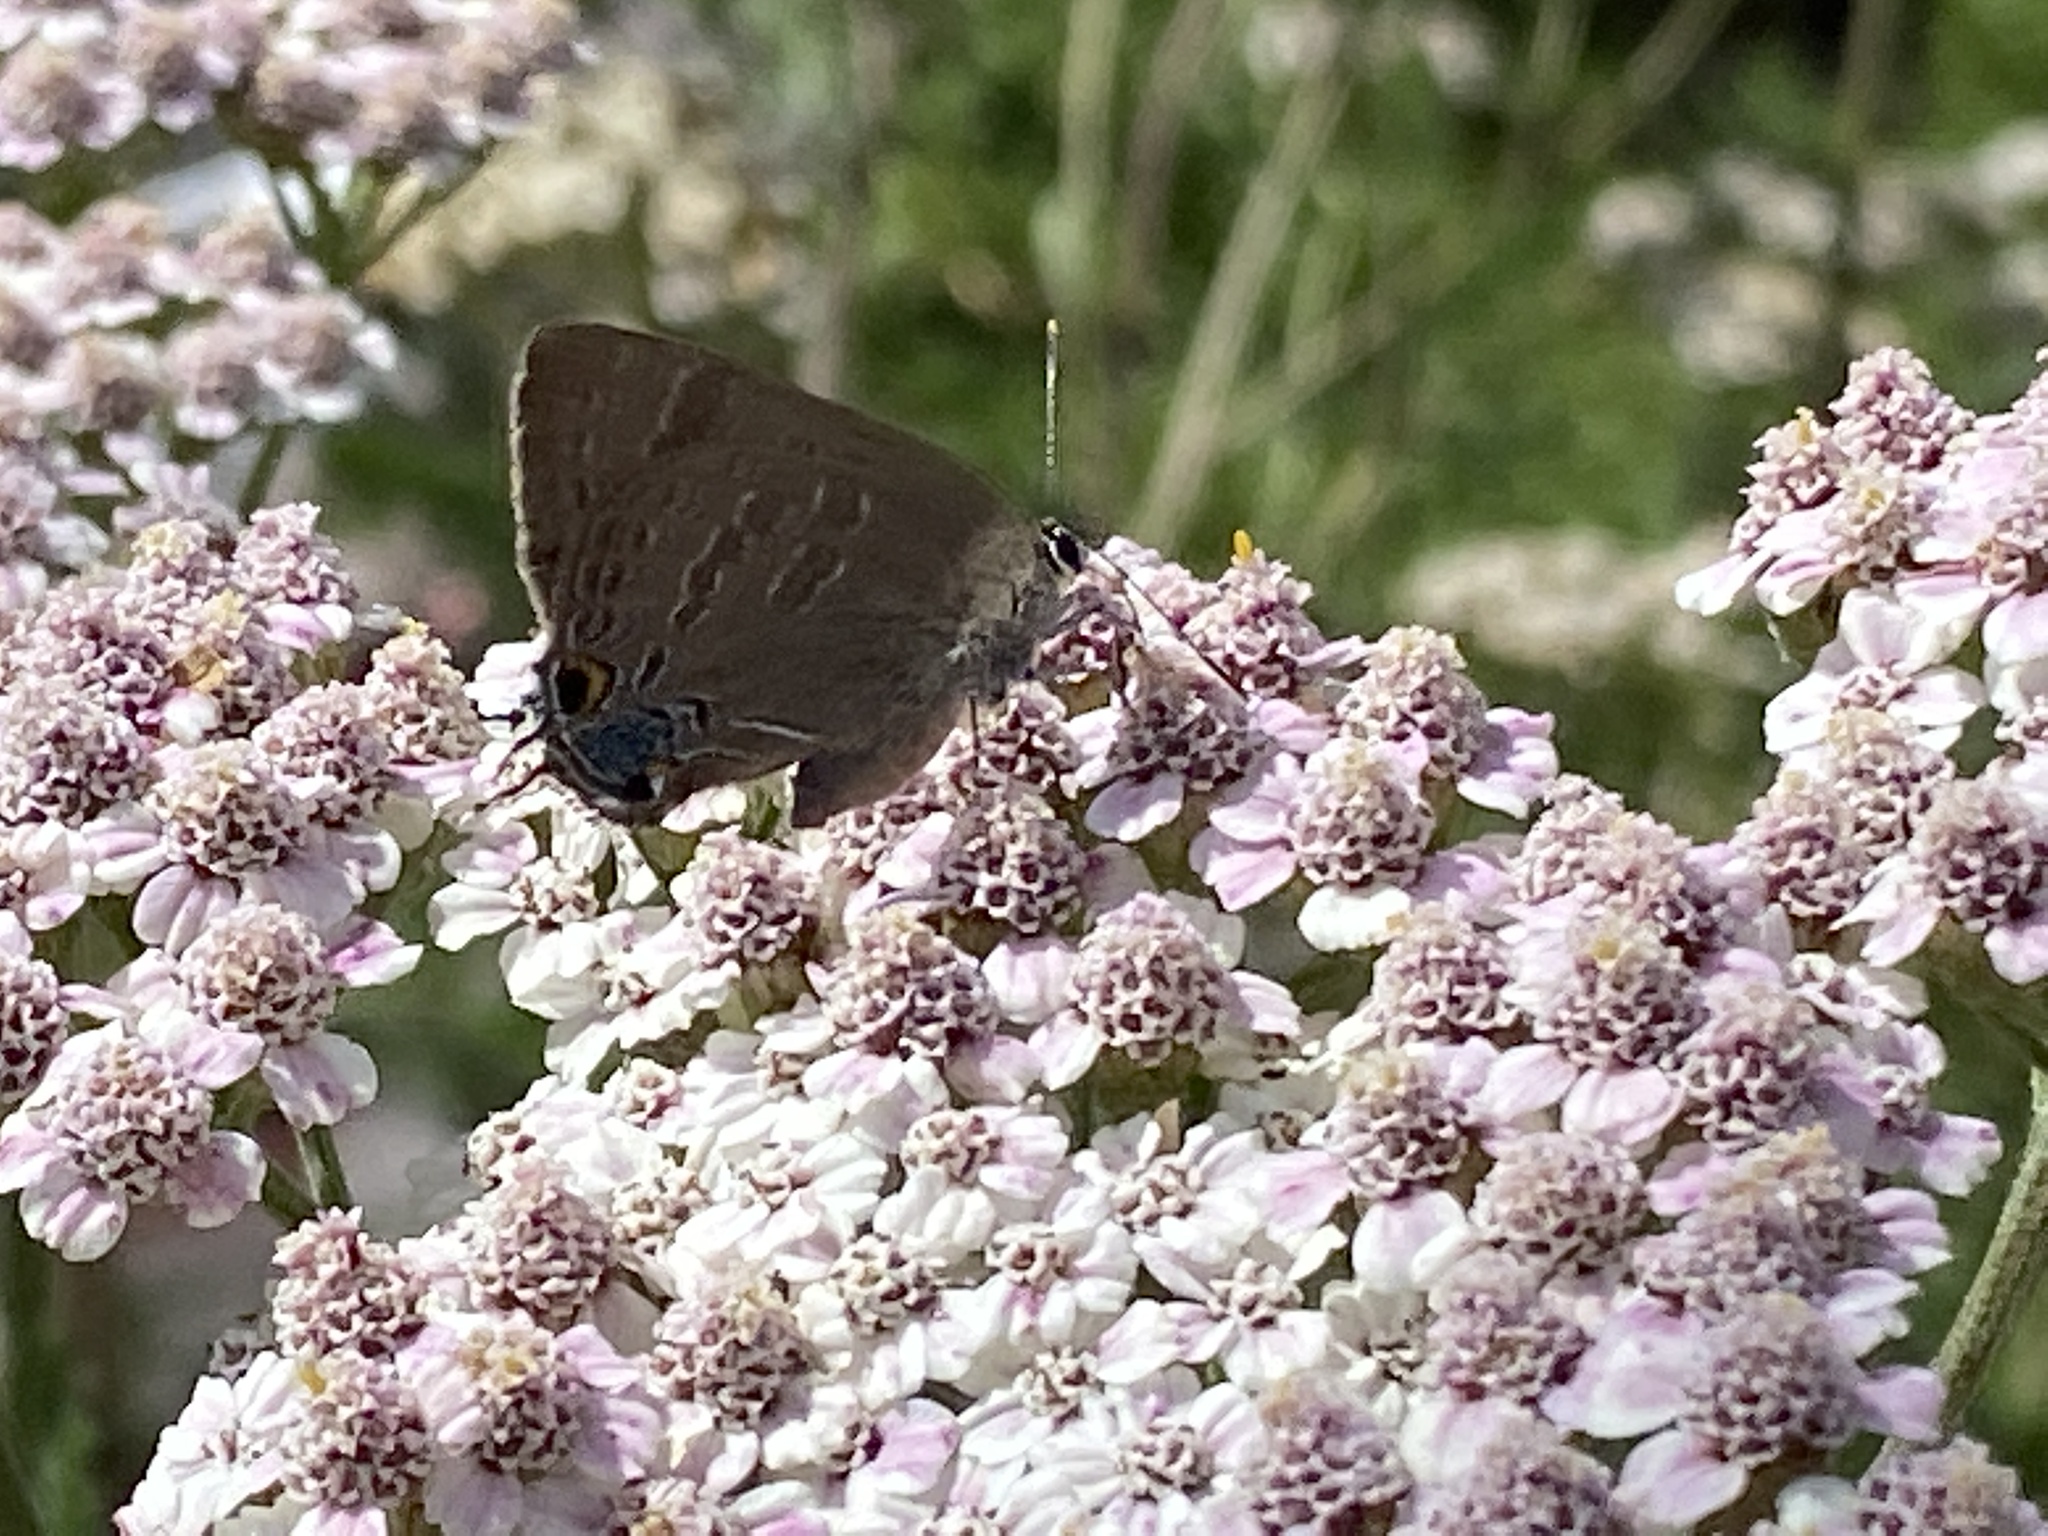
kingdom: Animalia
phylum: Arthropoda
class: Insecta
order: Lepidoptera
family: Lycaenidae
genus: Strymon
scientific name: Strymon caryaevorus
